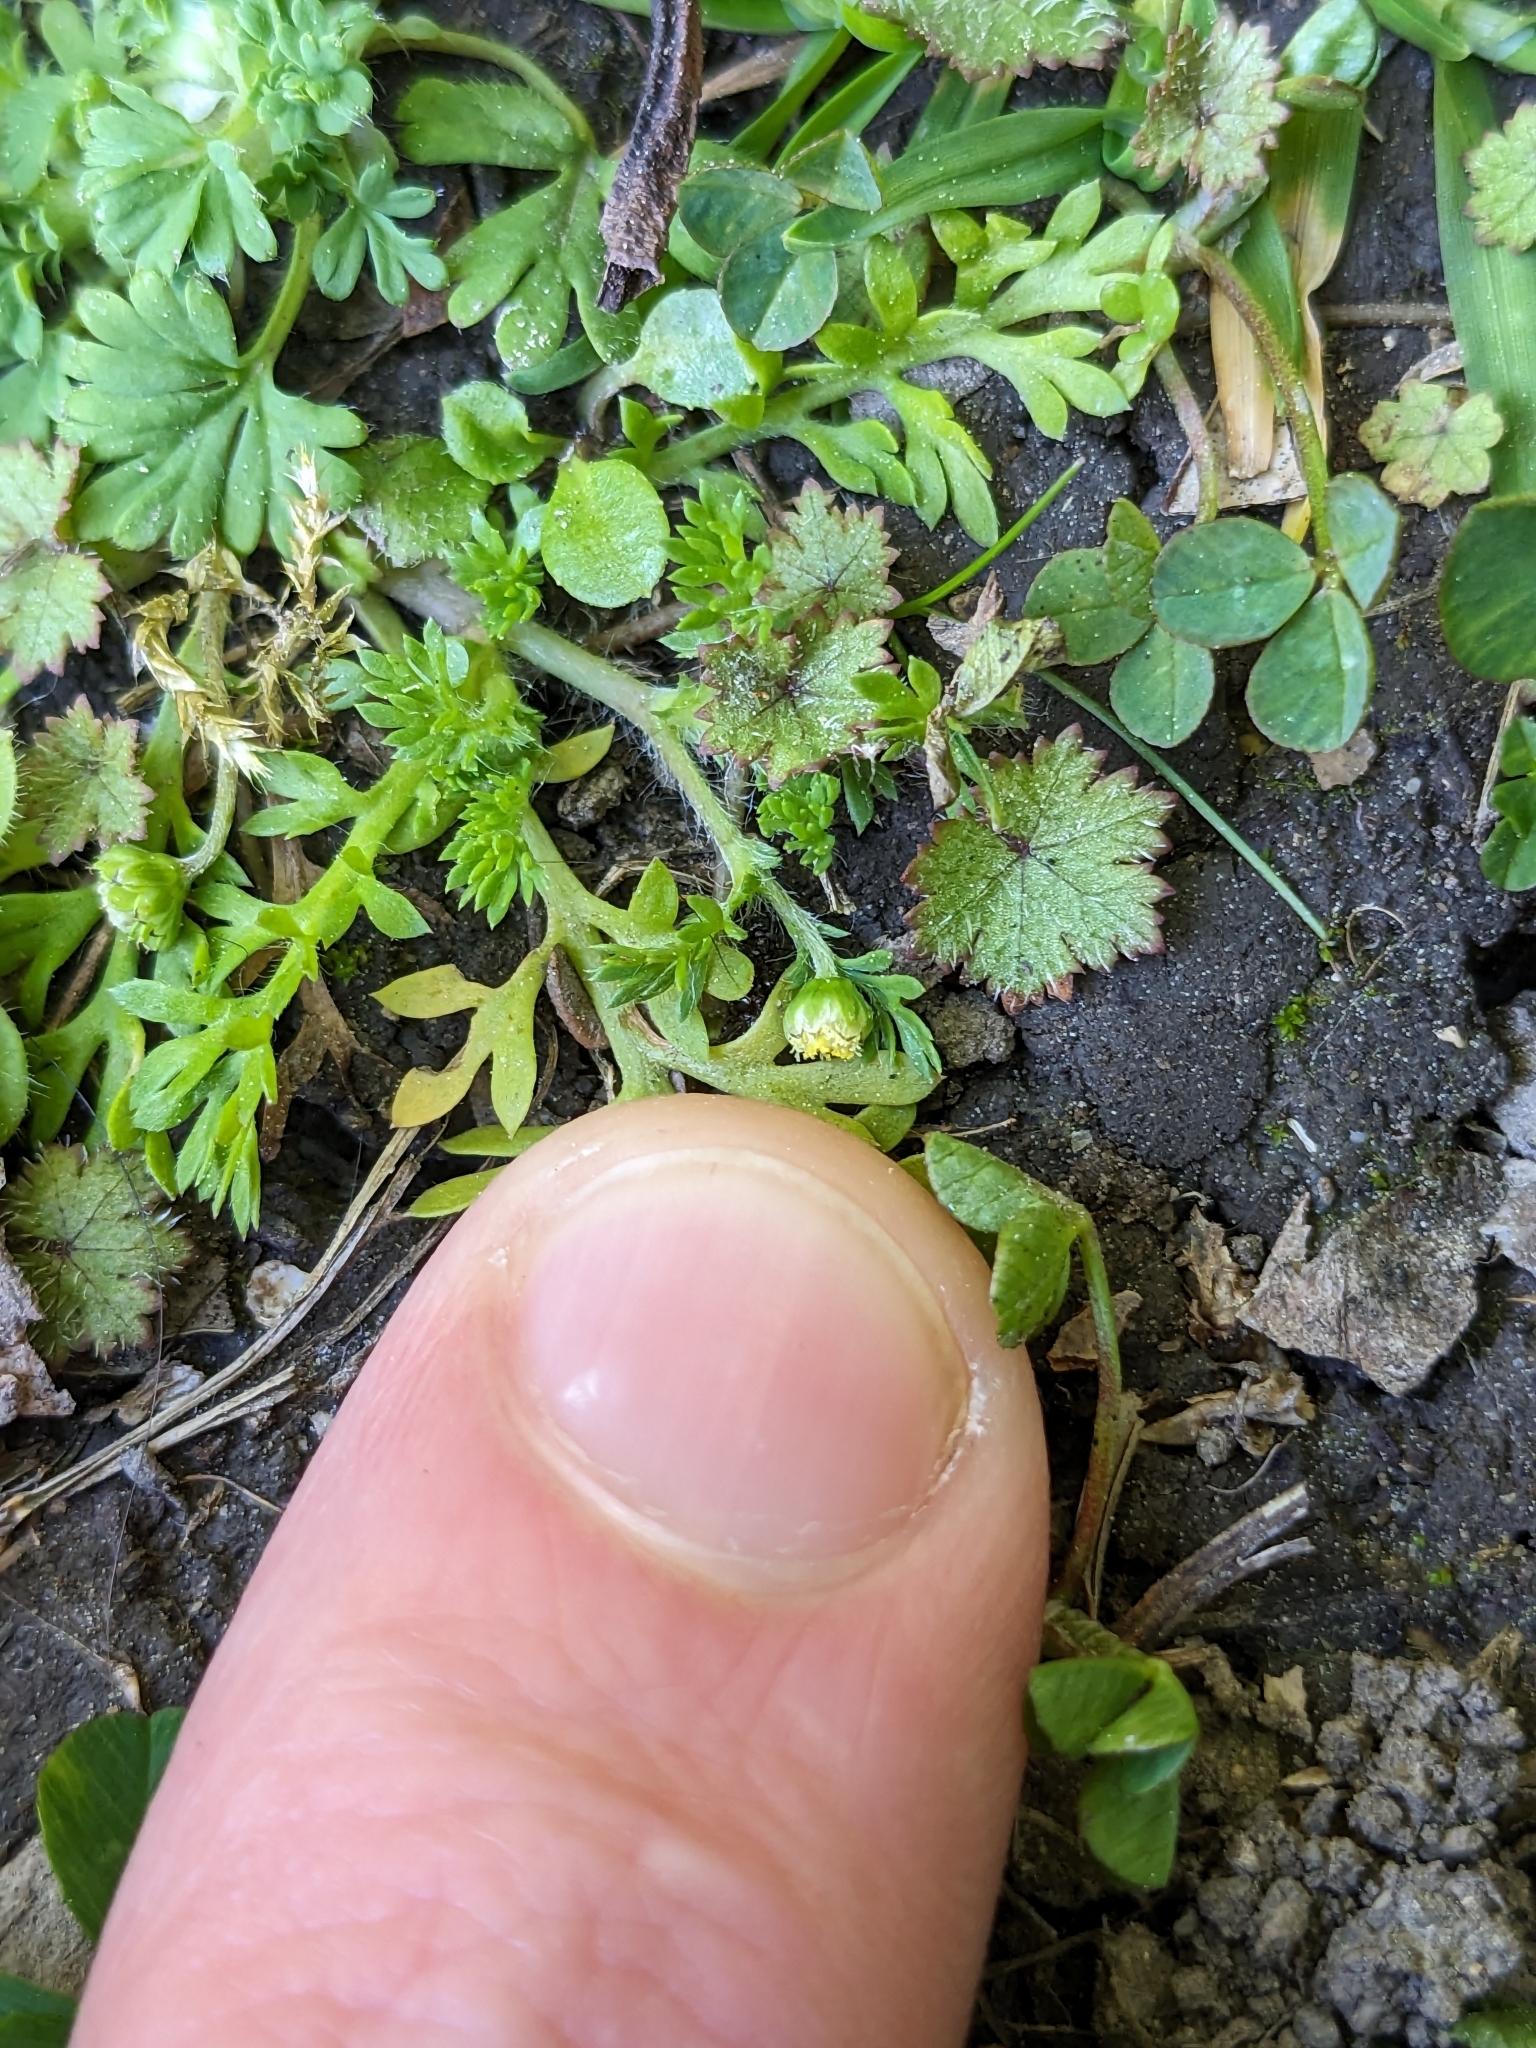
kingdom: Plantae
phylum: Tracheophyta
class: Magnoliopsida
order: Asterales
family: Asteraceae
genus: Cotula
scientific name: Cotula australis
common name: Australian waterbuttons
